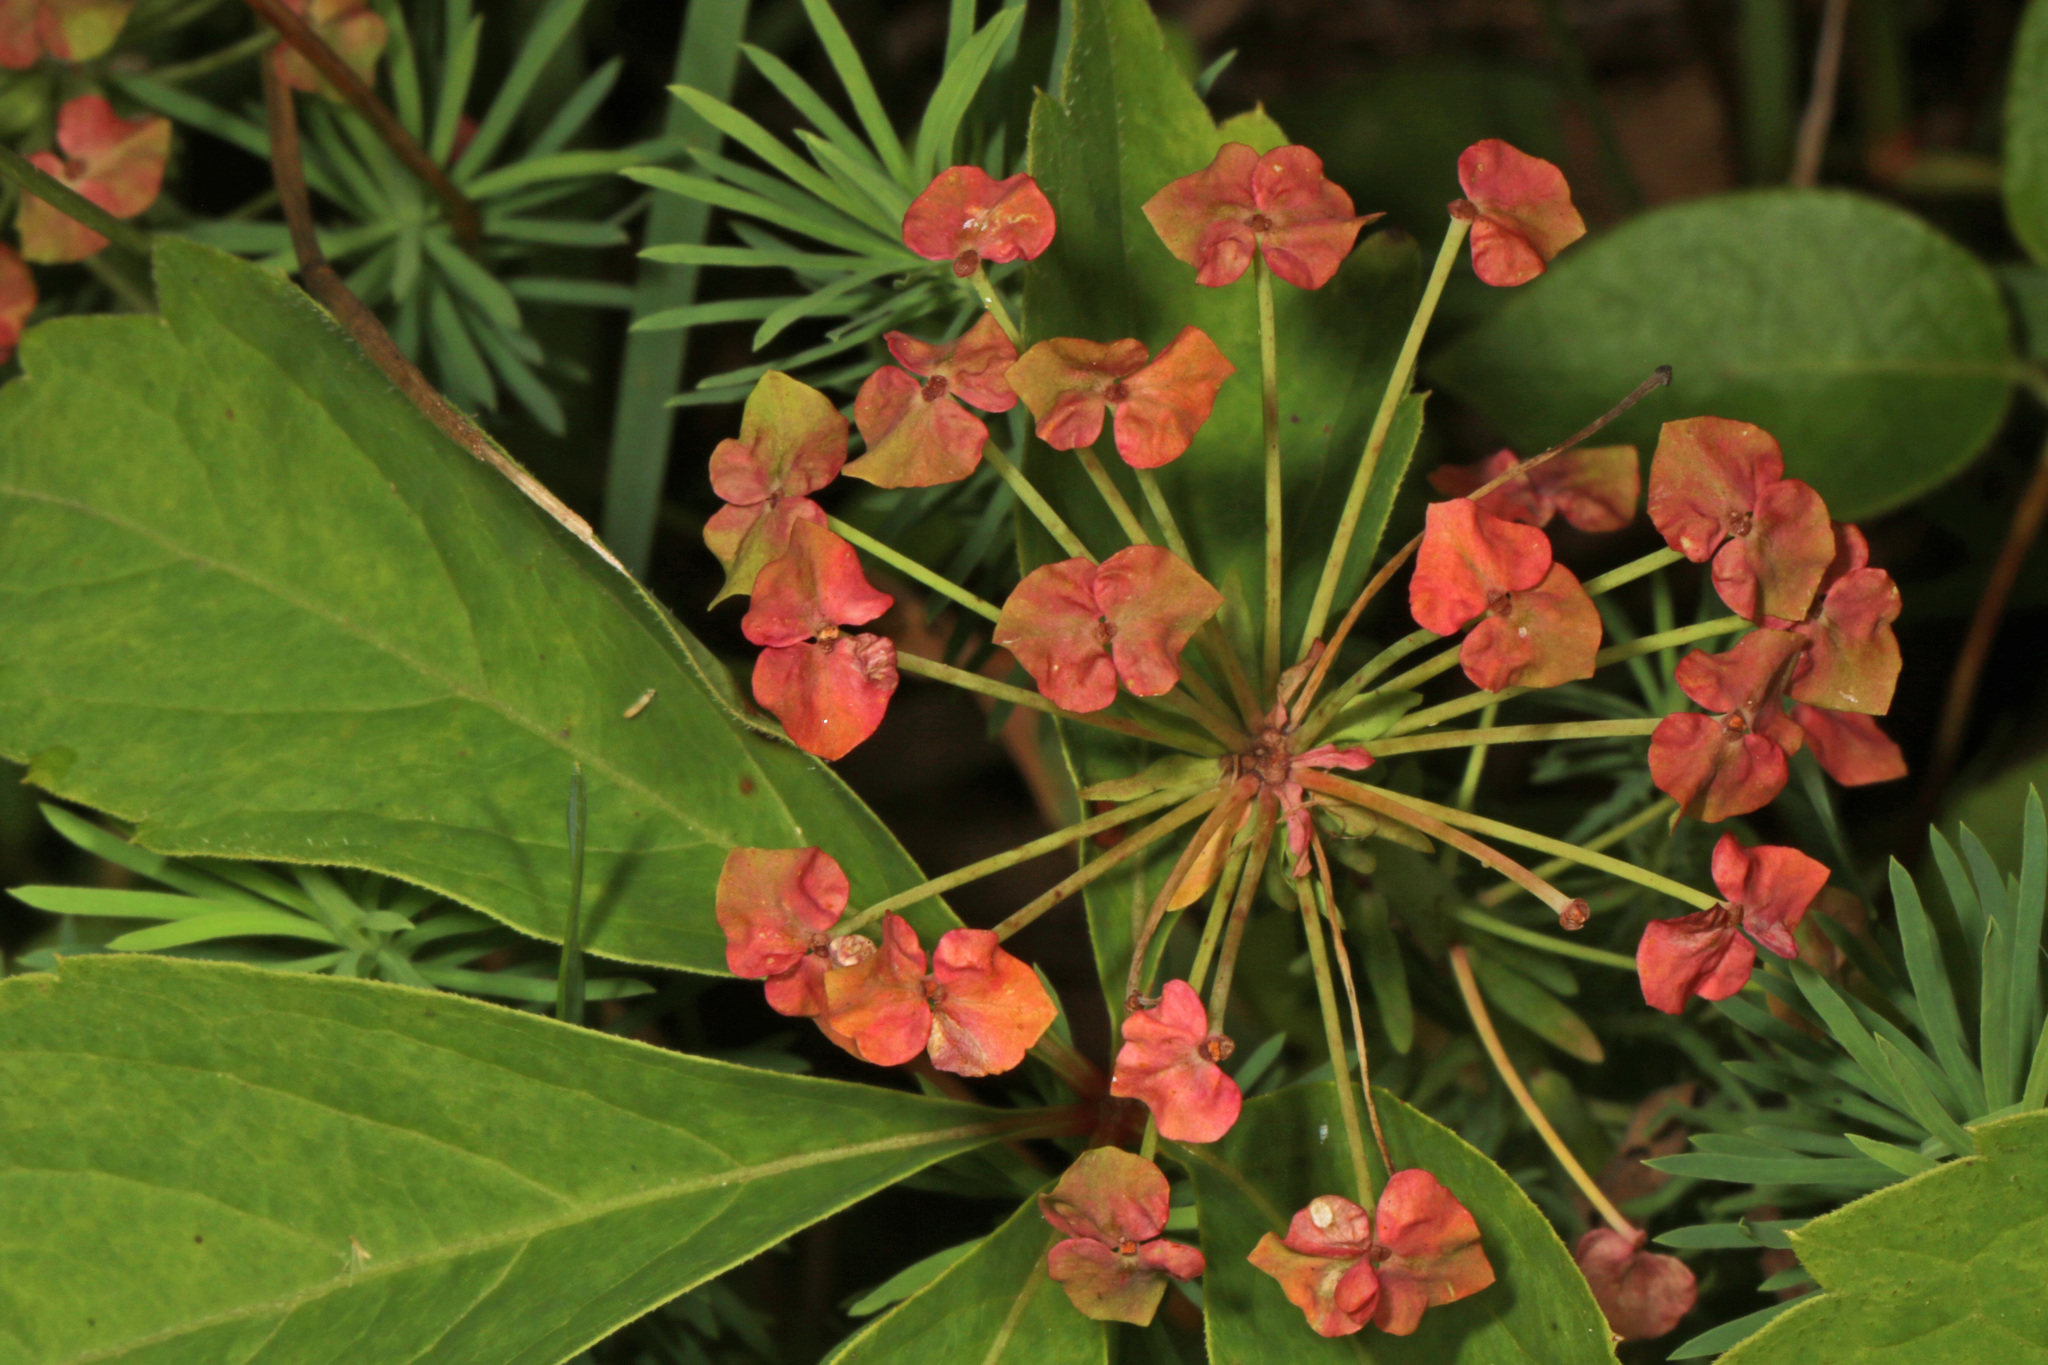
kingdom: Plantae
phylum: Tracheophyta
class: Magnoliopsida
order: Malpighiales
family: Euphorbiaceae
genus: Euphorbia
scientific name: Euphorbia cyparissias
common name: Cypress spurge
